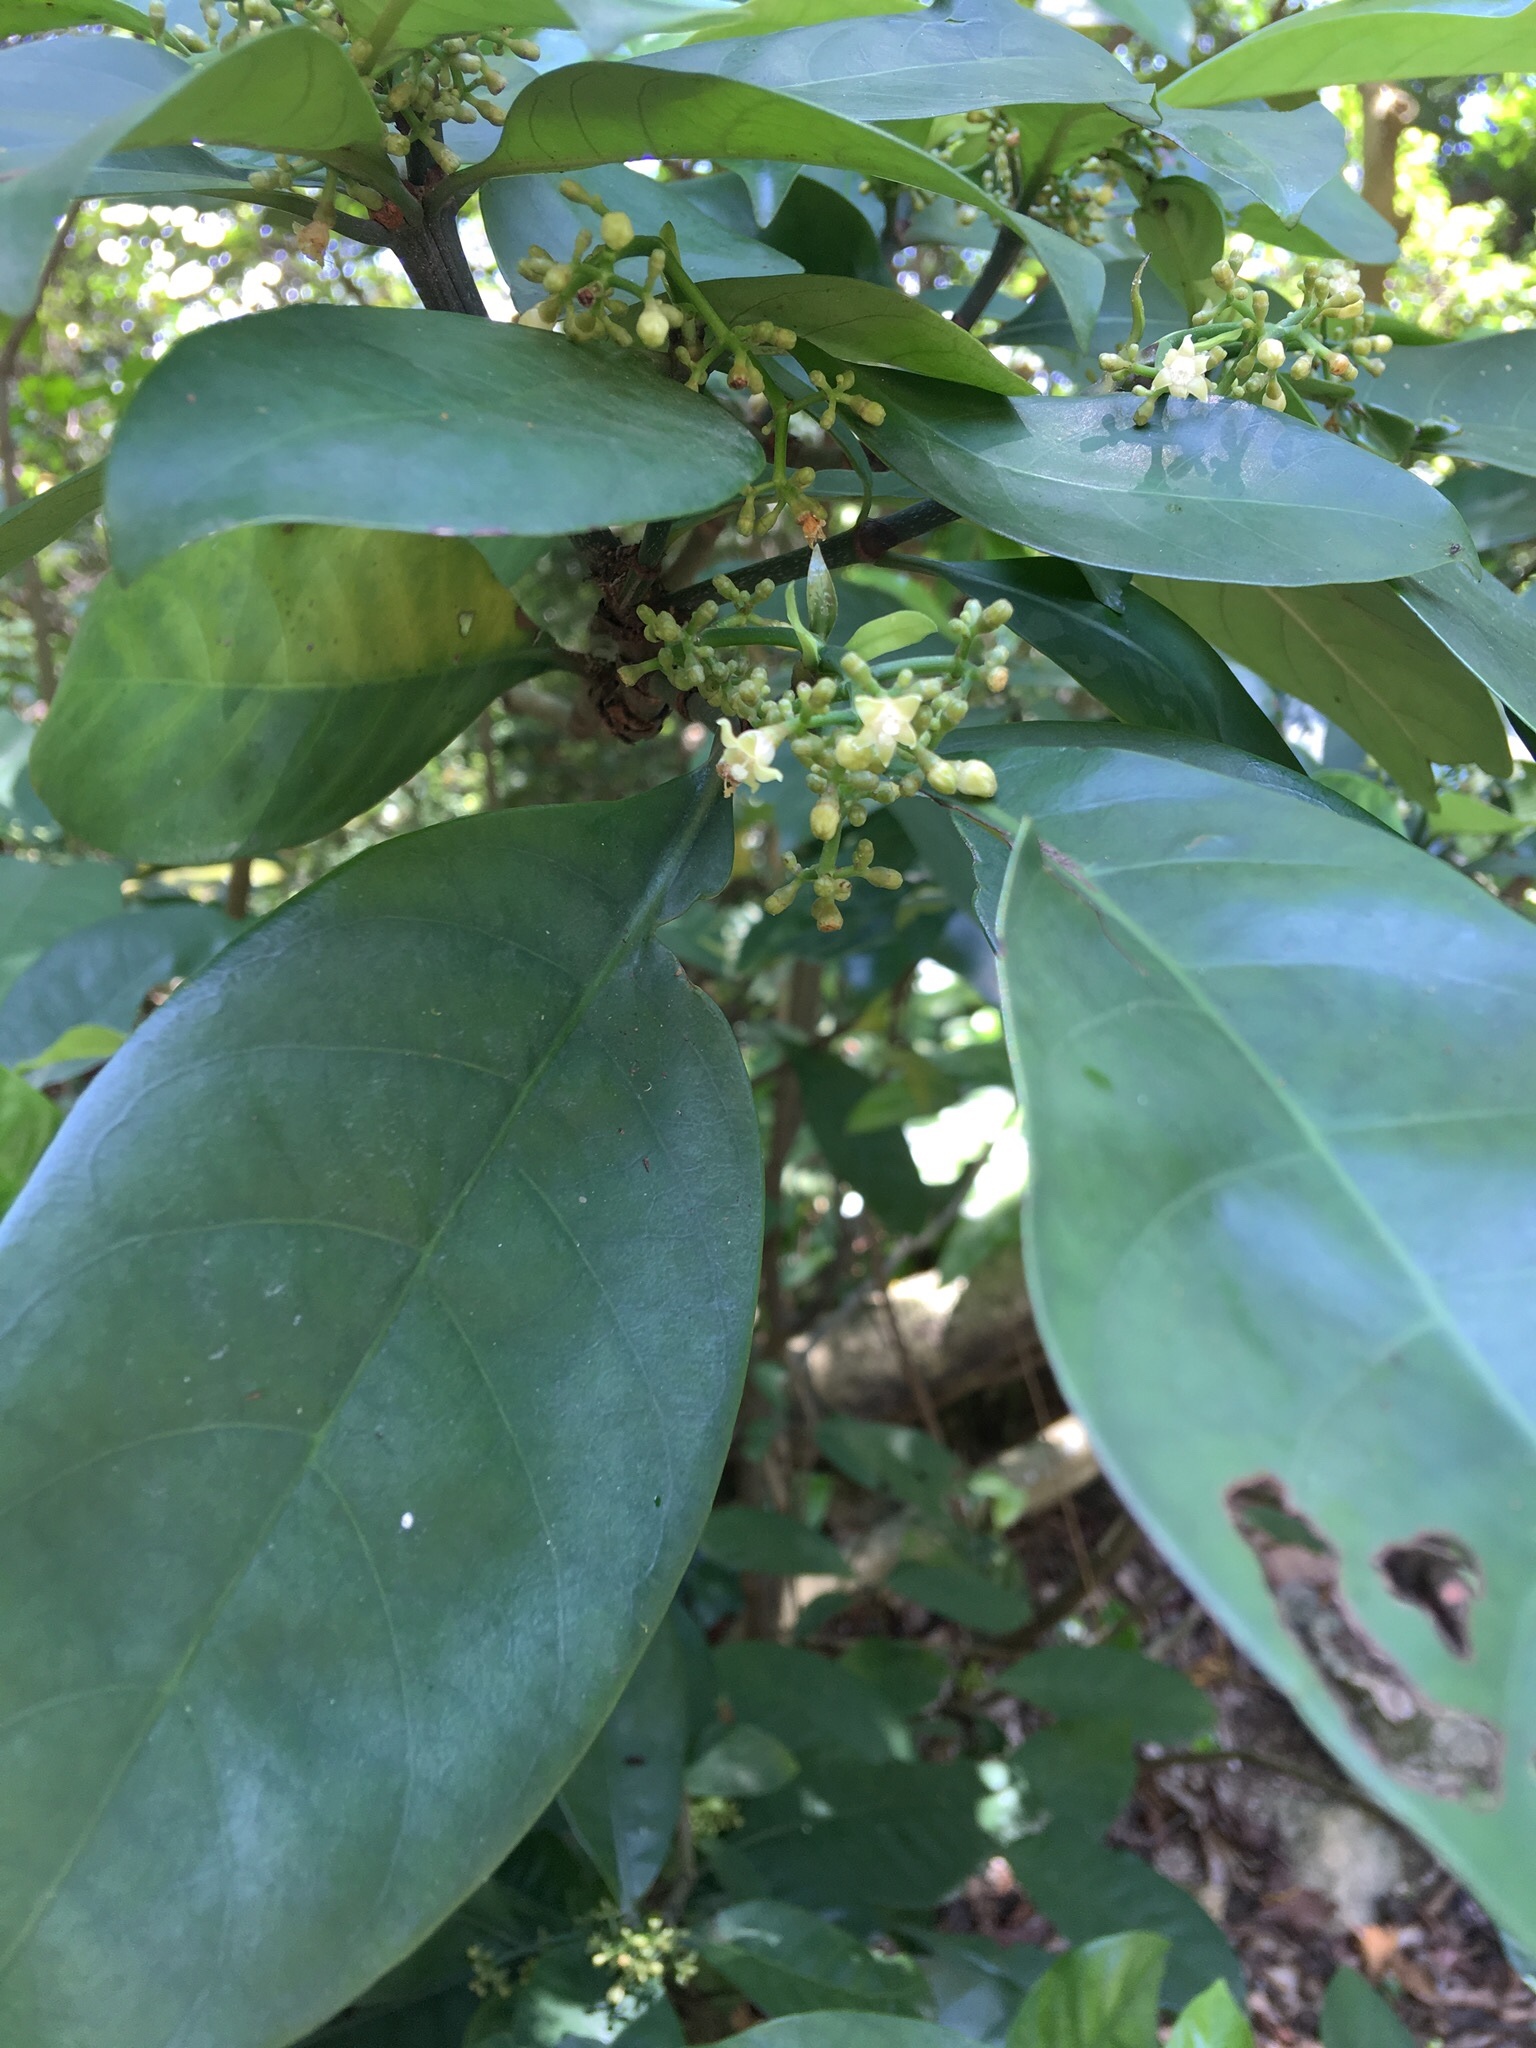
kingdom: Plantae
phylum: Tracheophyta
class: Magnoliopsida
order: Gentianales
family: Rubiaceae
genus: Psychotria
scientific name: Psychotria asiatica
